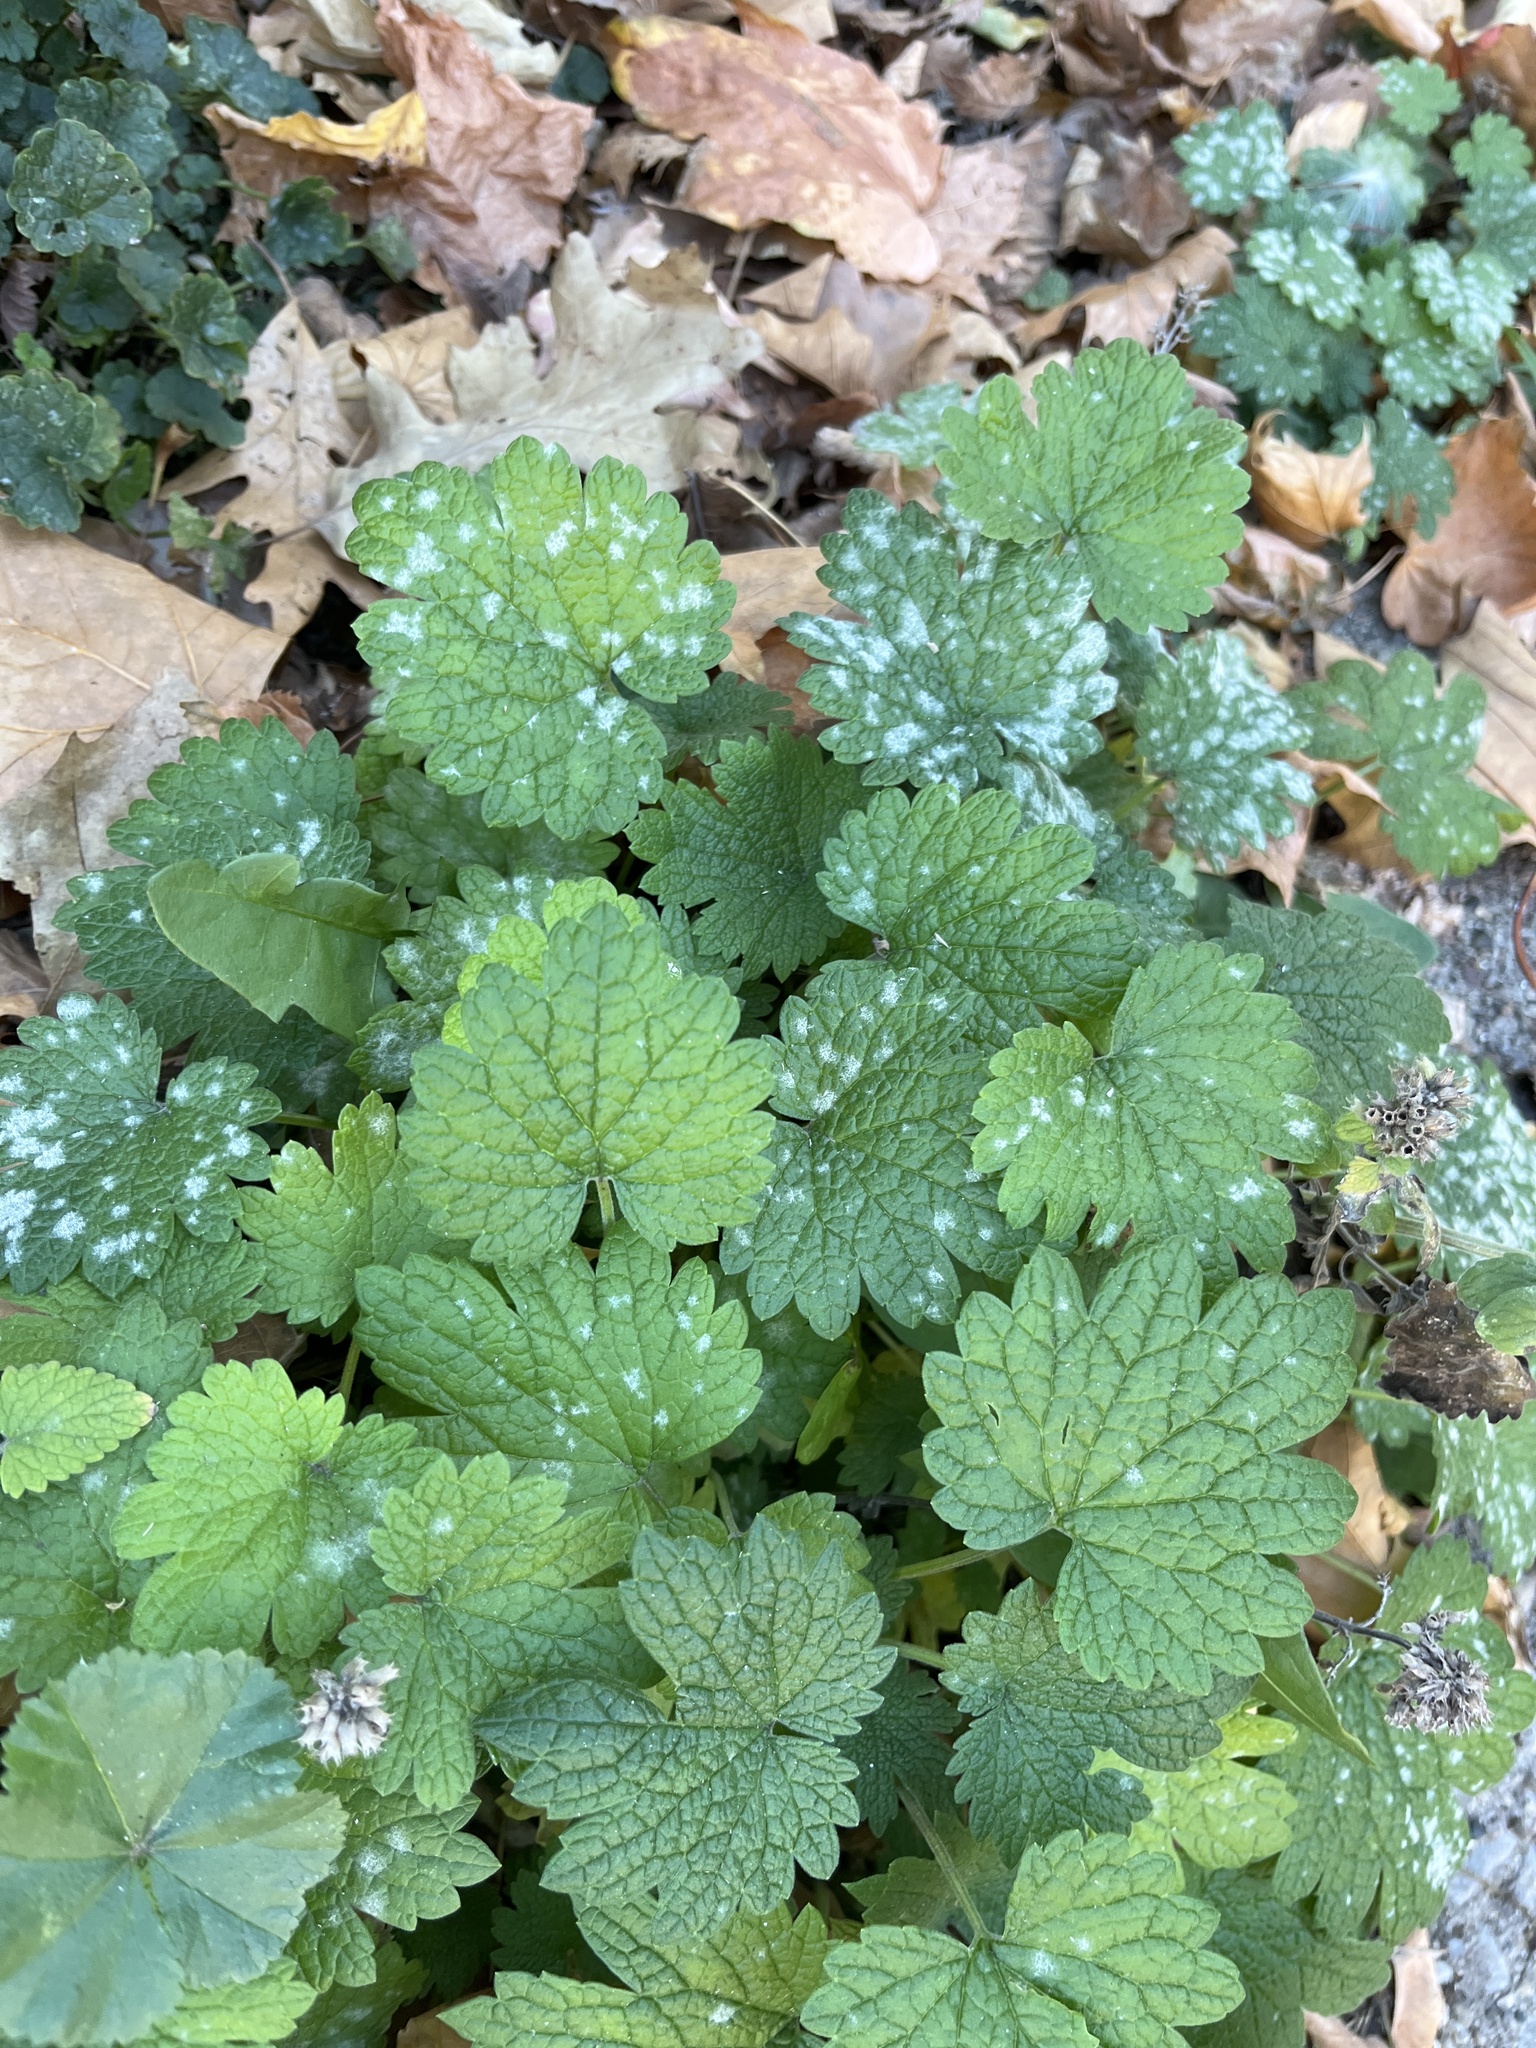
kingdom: Plantae
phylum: Tracheophyta
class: Magnoliopsida
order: Lamiales
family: Lamiaceae
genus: Leonurus
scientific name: Leonurus cardiaca
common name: Motherwort
